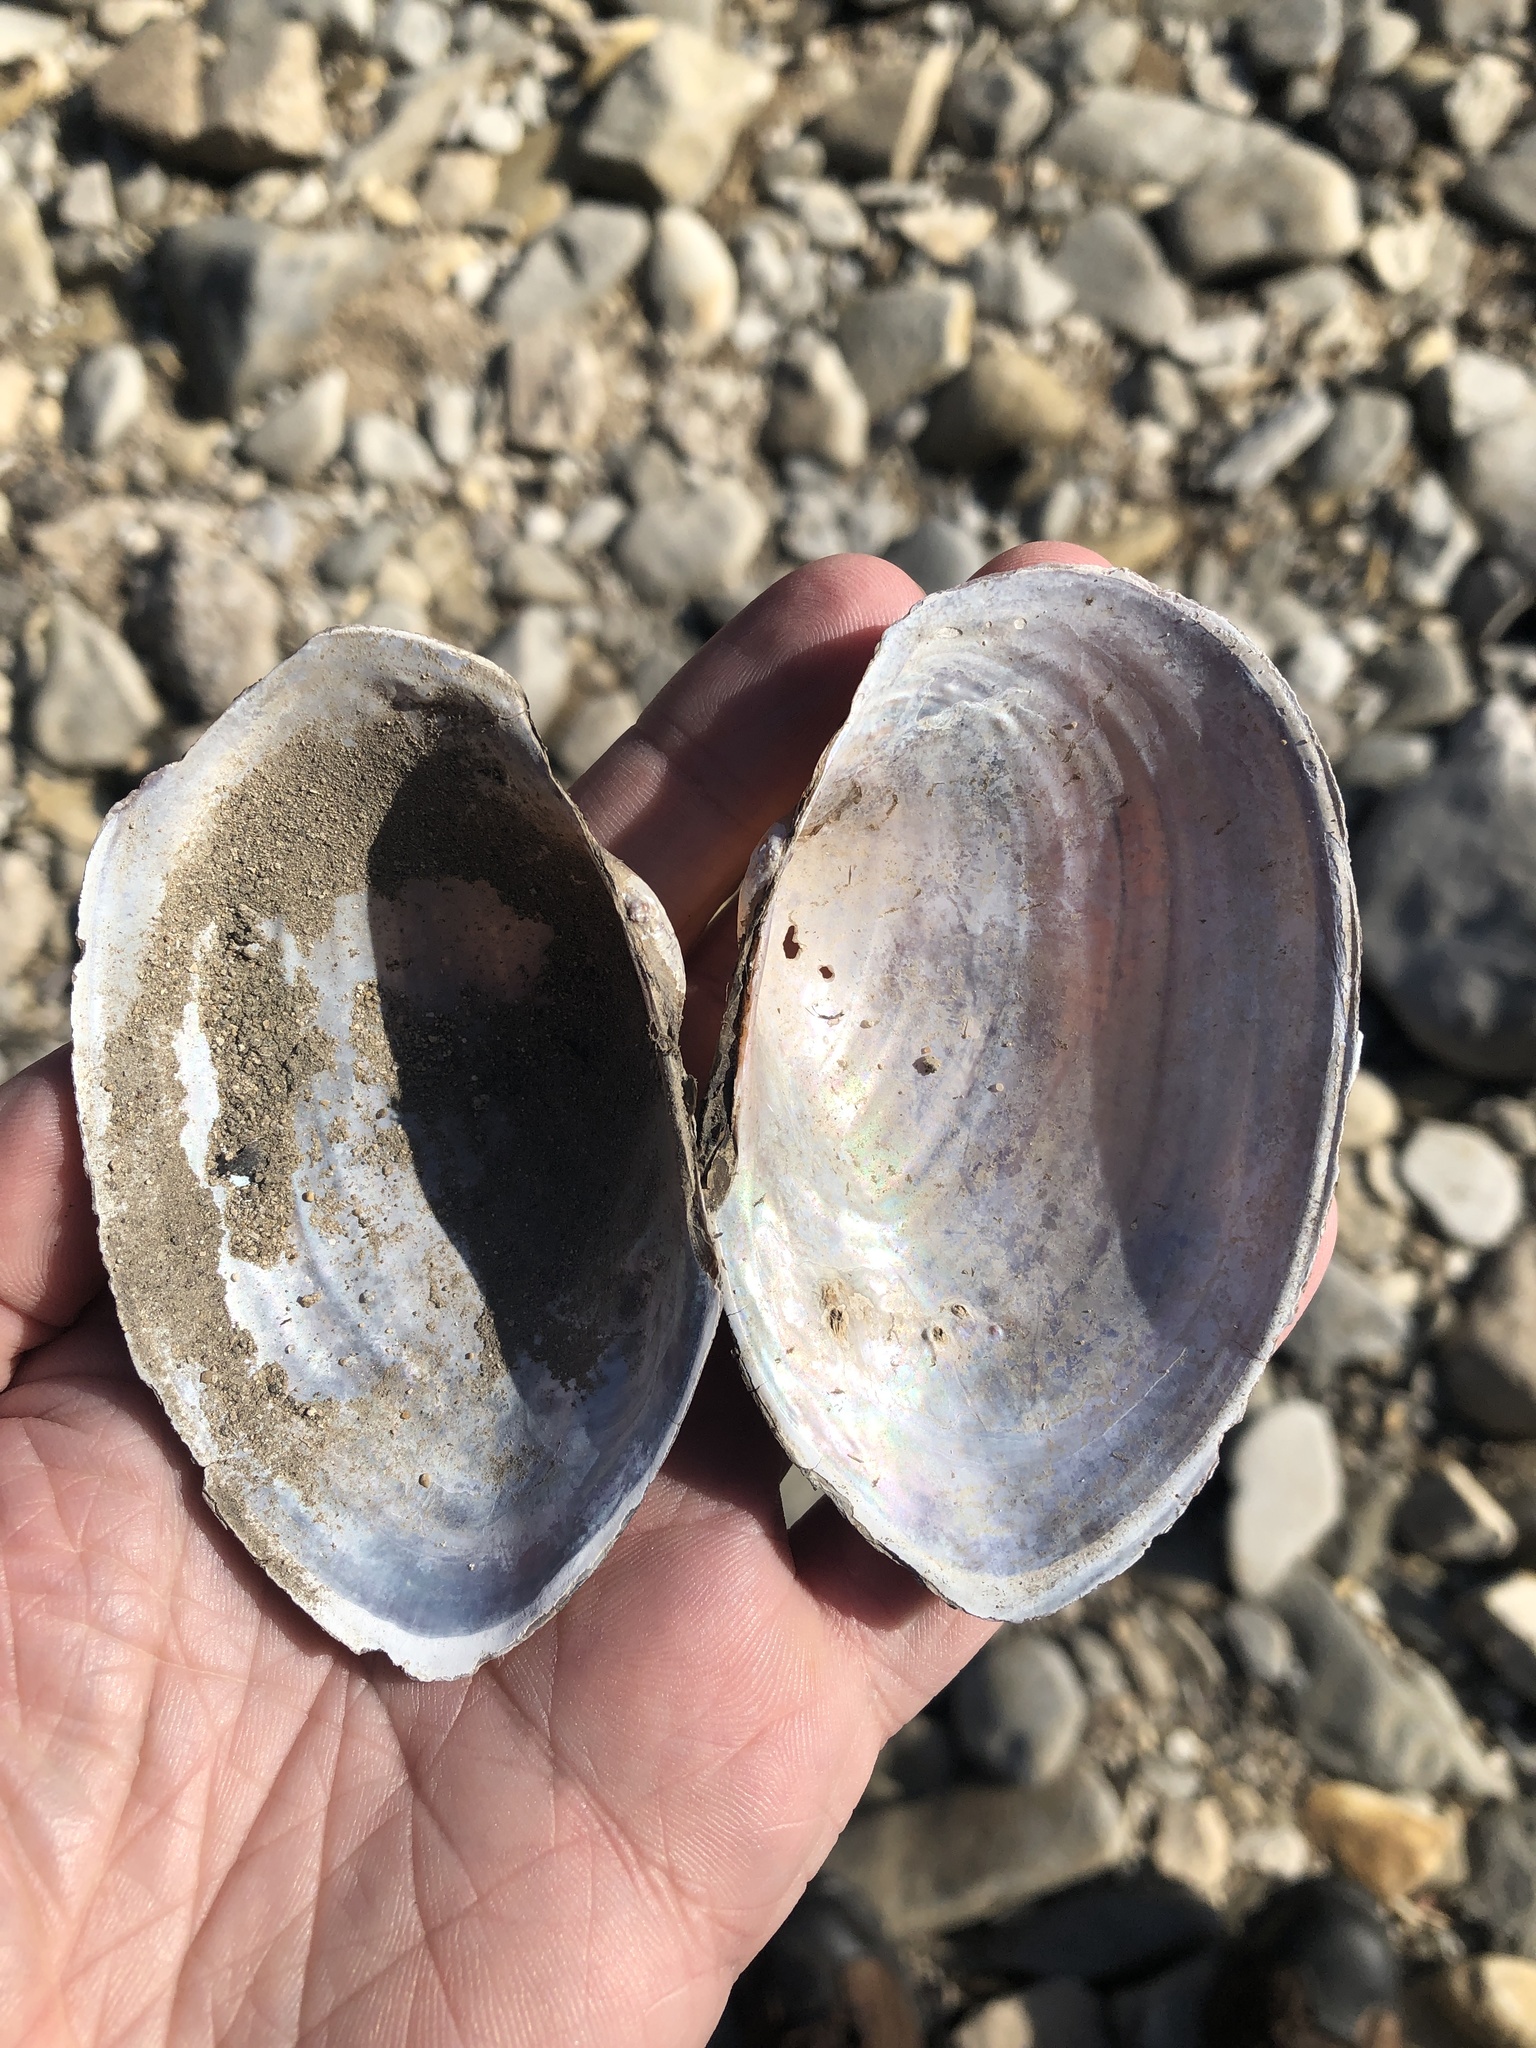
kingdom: Animalia
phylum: Mollusca
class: Bivalvia
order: Unionida
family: Unionidae
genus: Pyganodon
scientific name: Pyganodon grandis
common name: Giant floater
